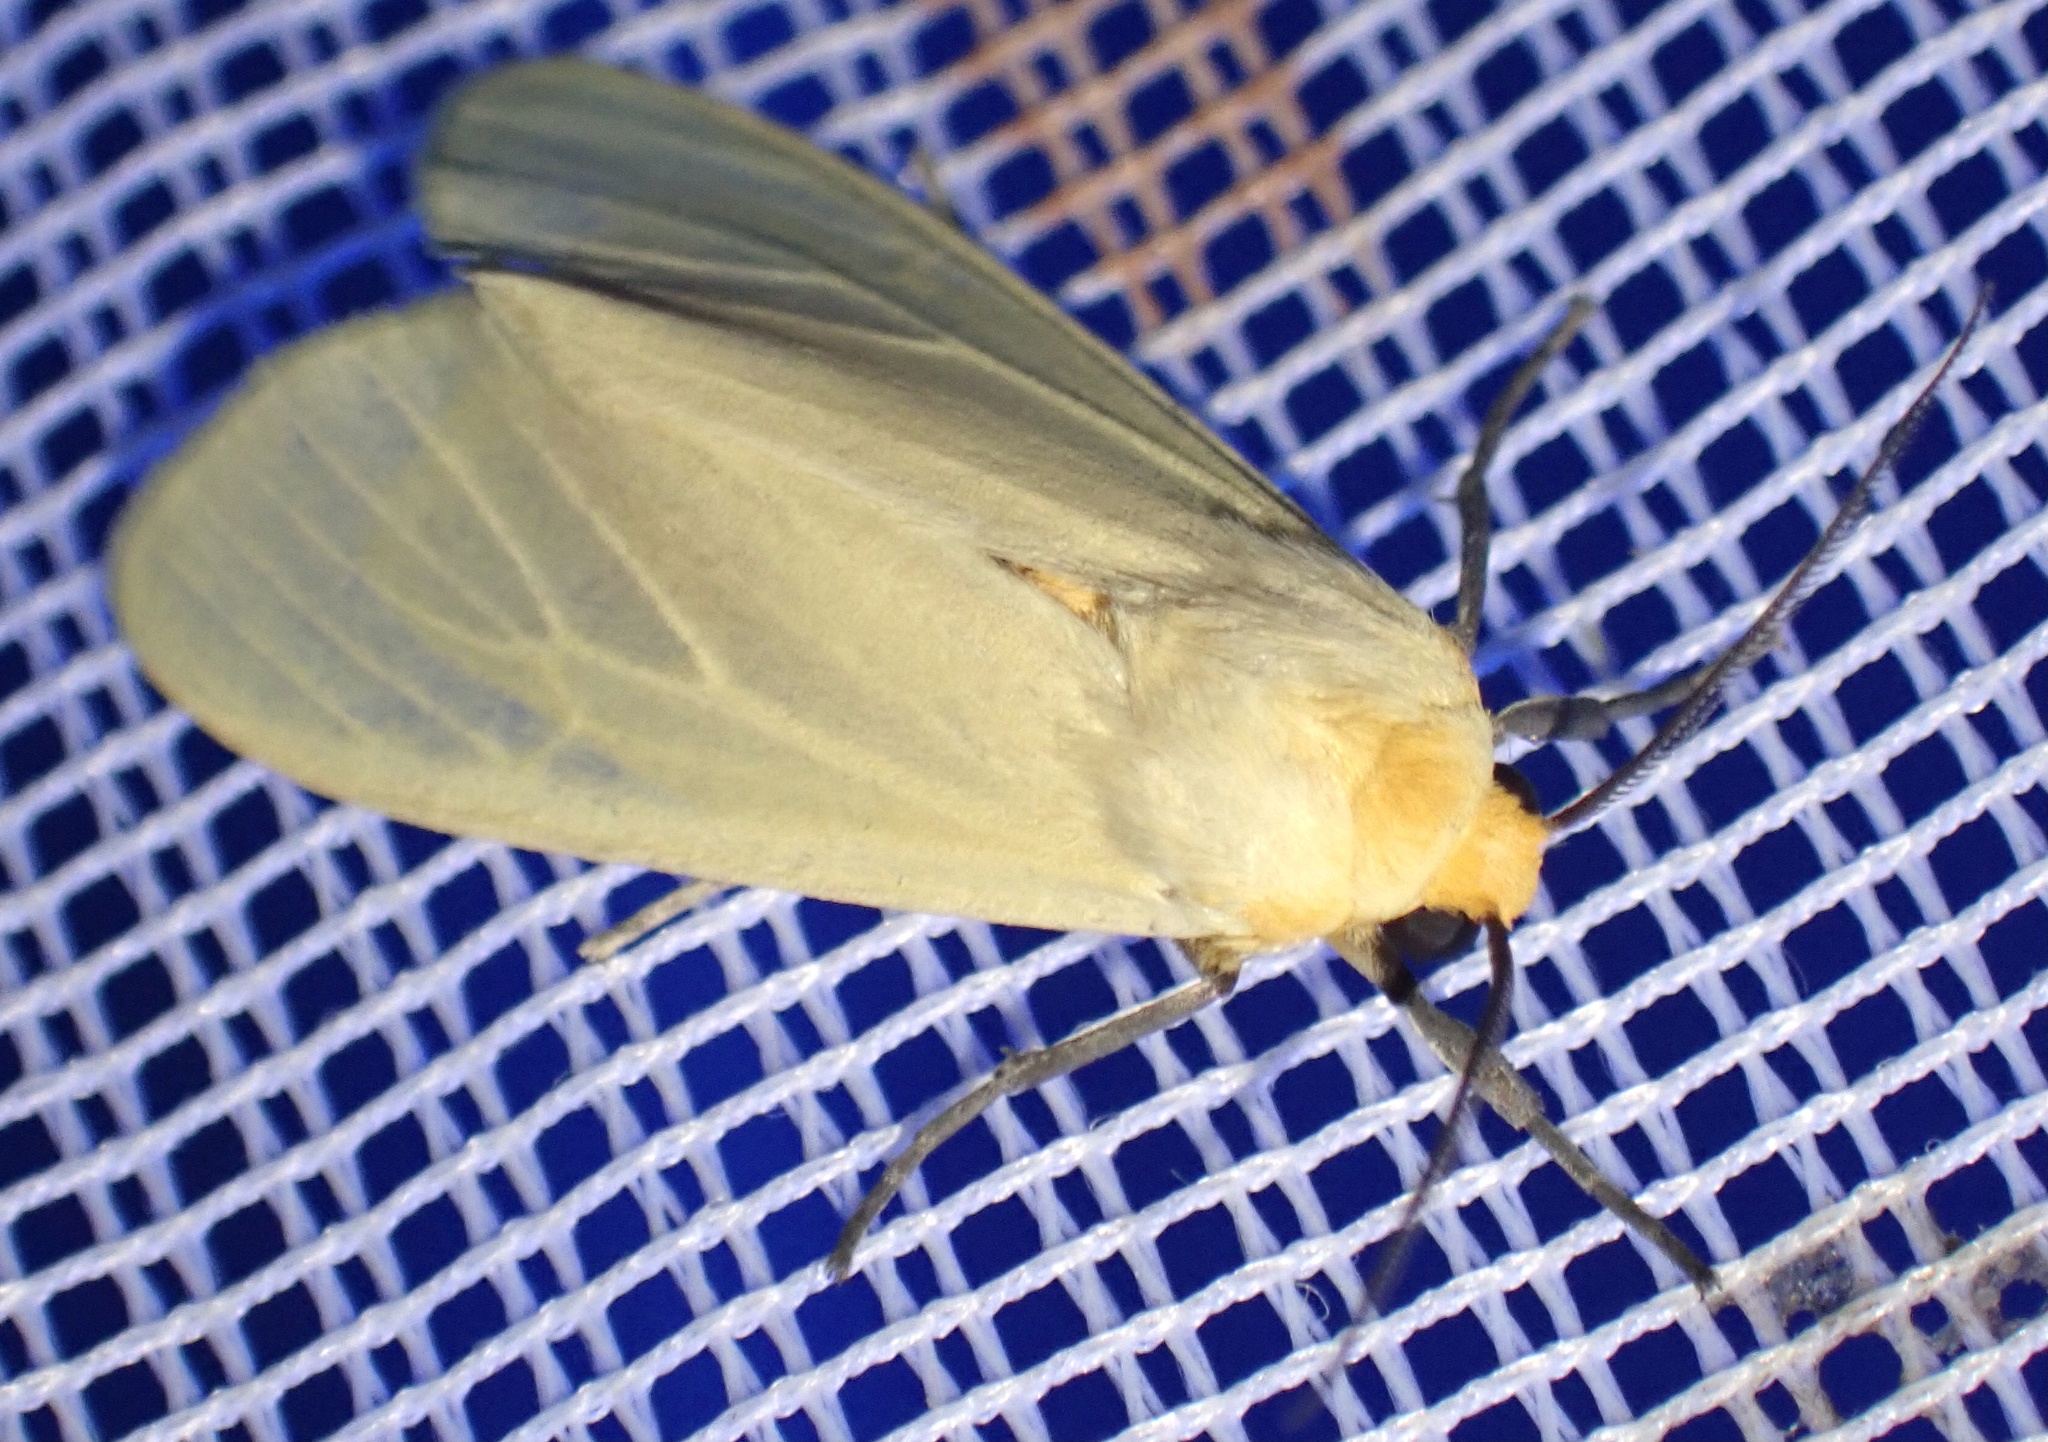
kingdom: Animalia
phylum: Arthropoda
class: Insecta
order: Lepidoptera
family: Erebidae
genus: Pareuchaetes
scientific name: Pareuchaetes pseudoinsulata
